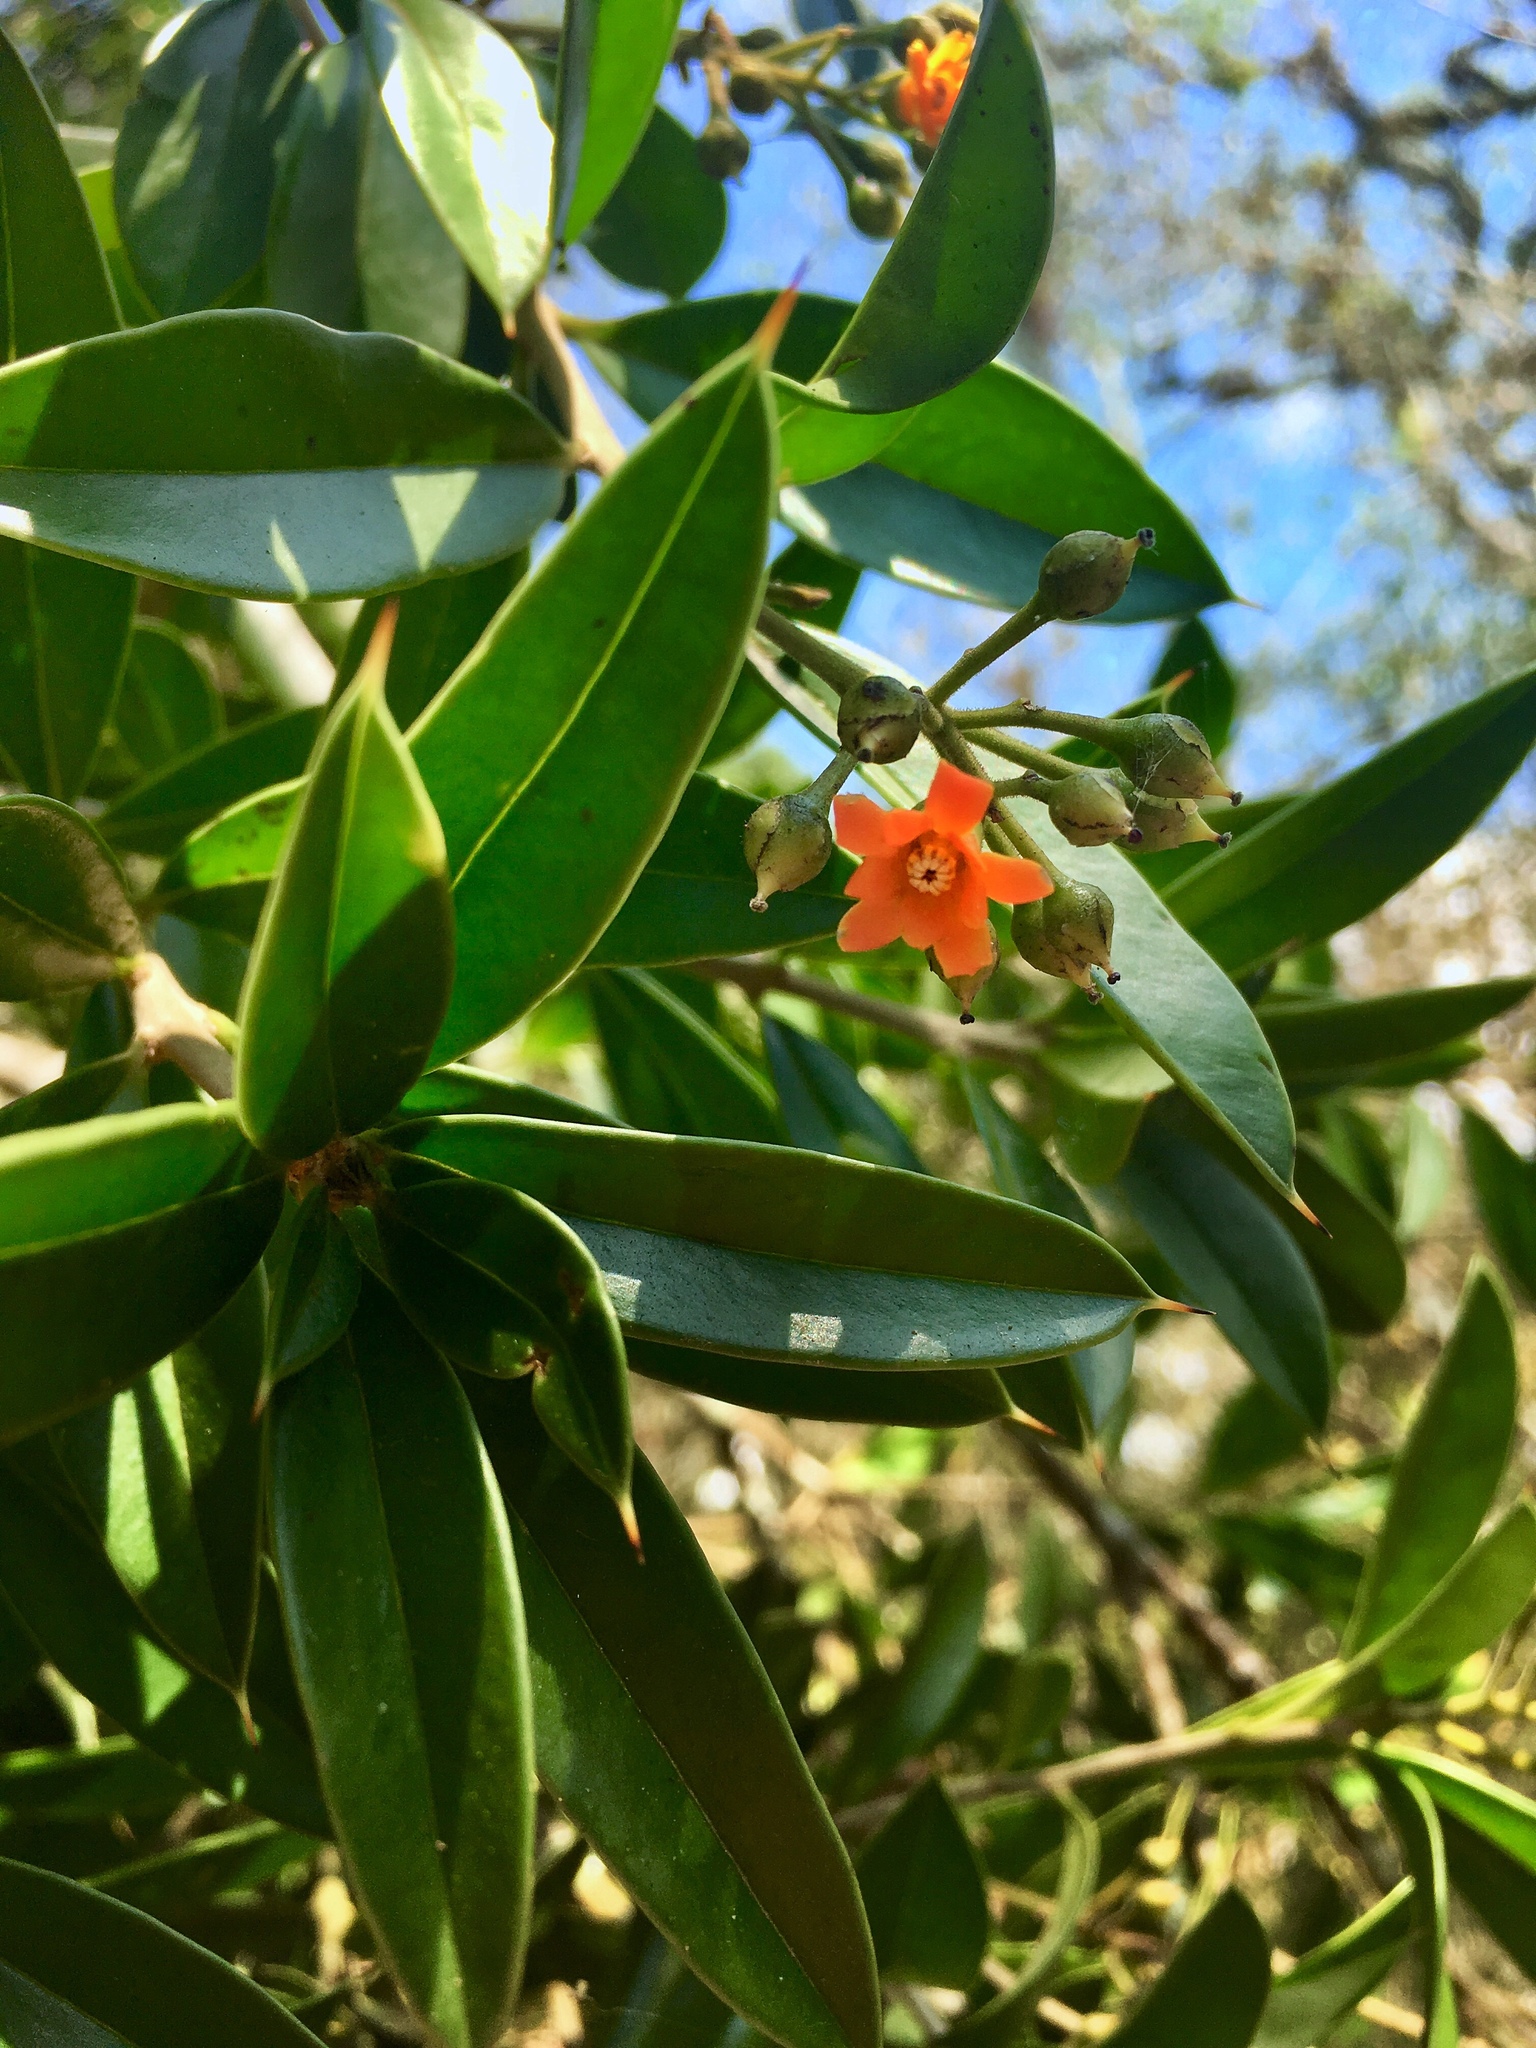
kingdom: Plantae
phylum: Tracheophyta
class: Magnoliopsida
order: Ericales
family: Primulaceae
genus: Bonellia
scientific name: Bonellia macrocarpa
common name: Primrose
